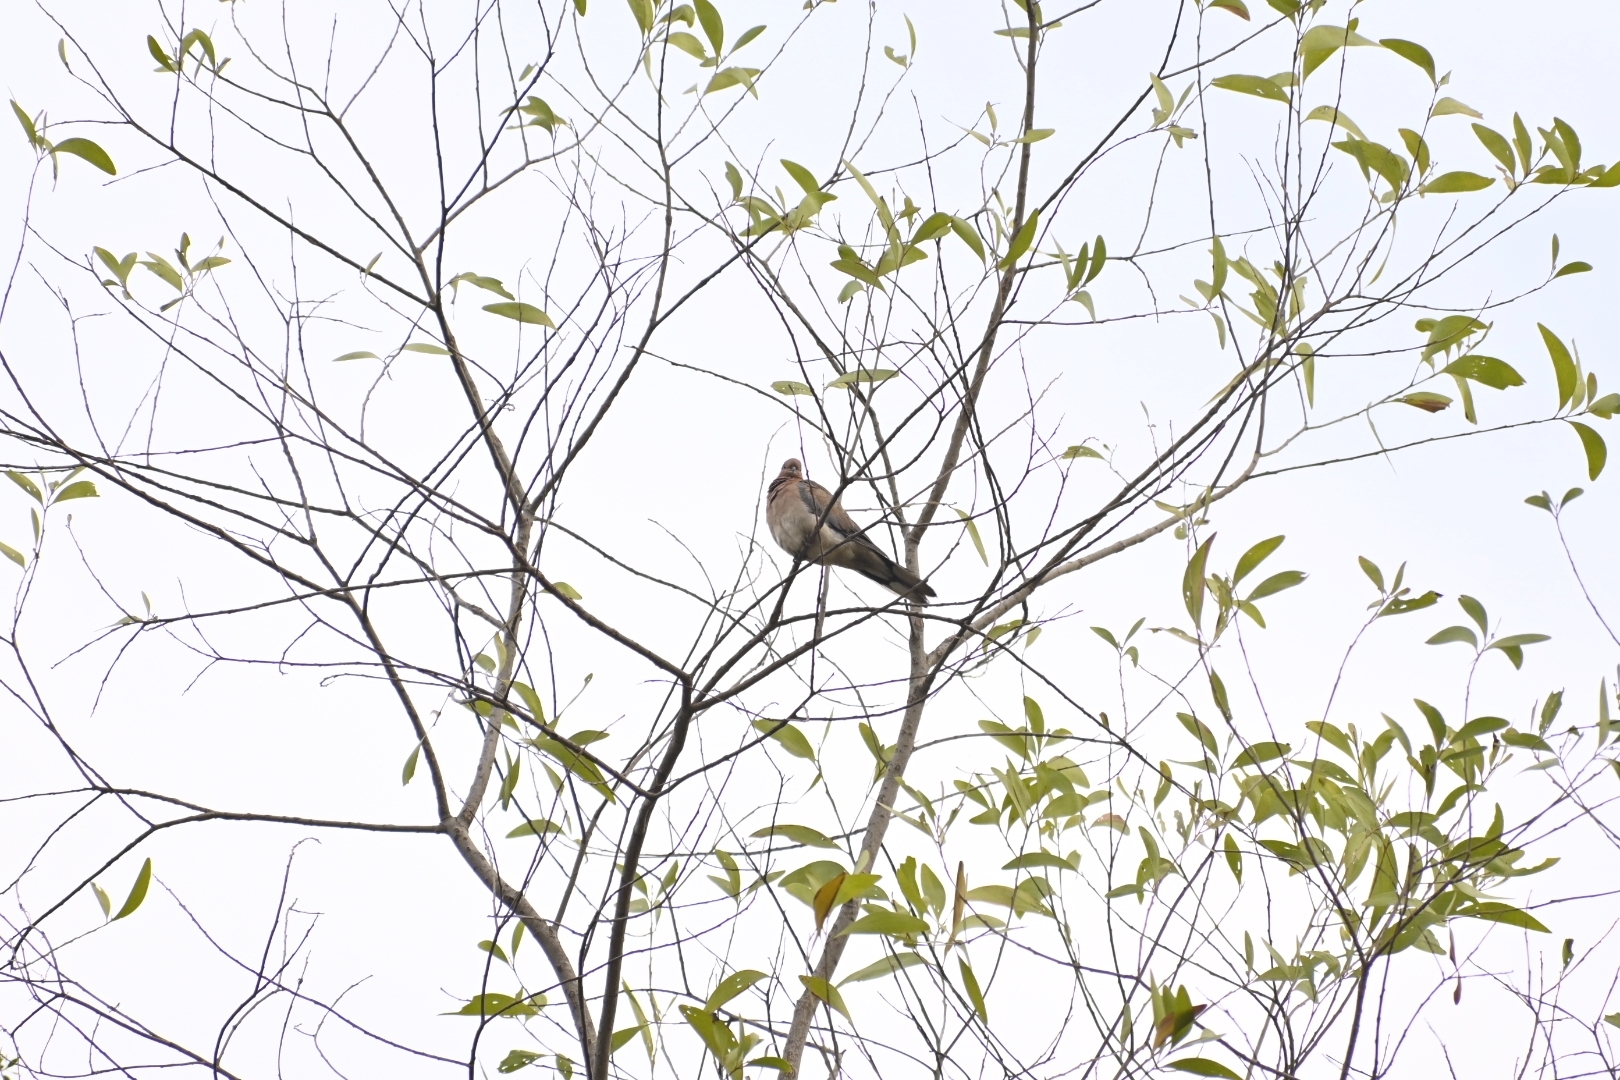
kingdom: Animalia
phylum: Chordata
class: Aves
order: Columbiformes
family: Columbidae
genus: Spilopelia
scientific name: Spilopelia senegalensis
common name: Laughing dove
